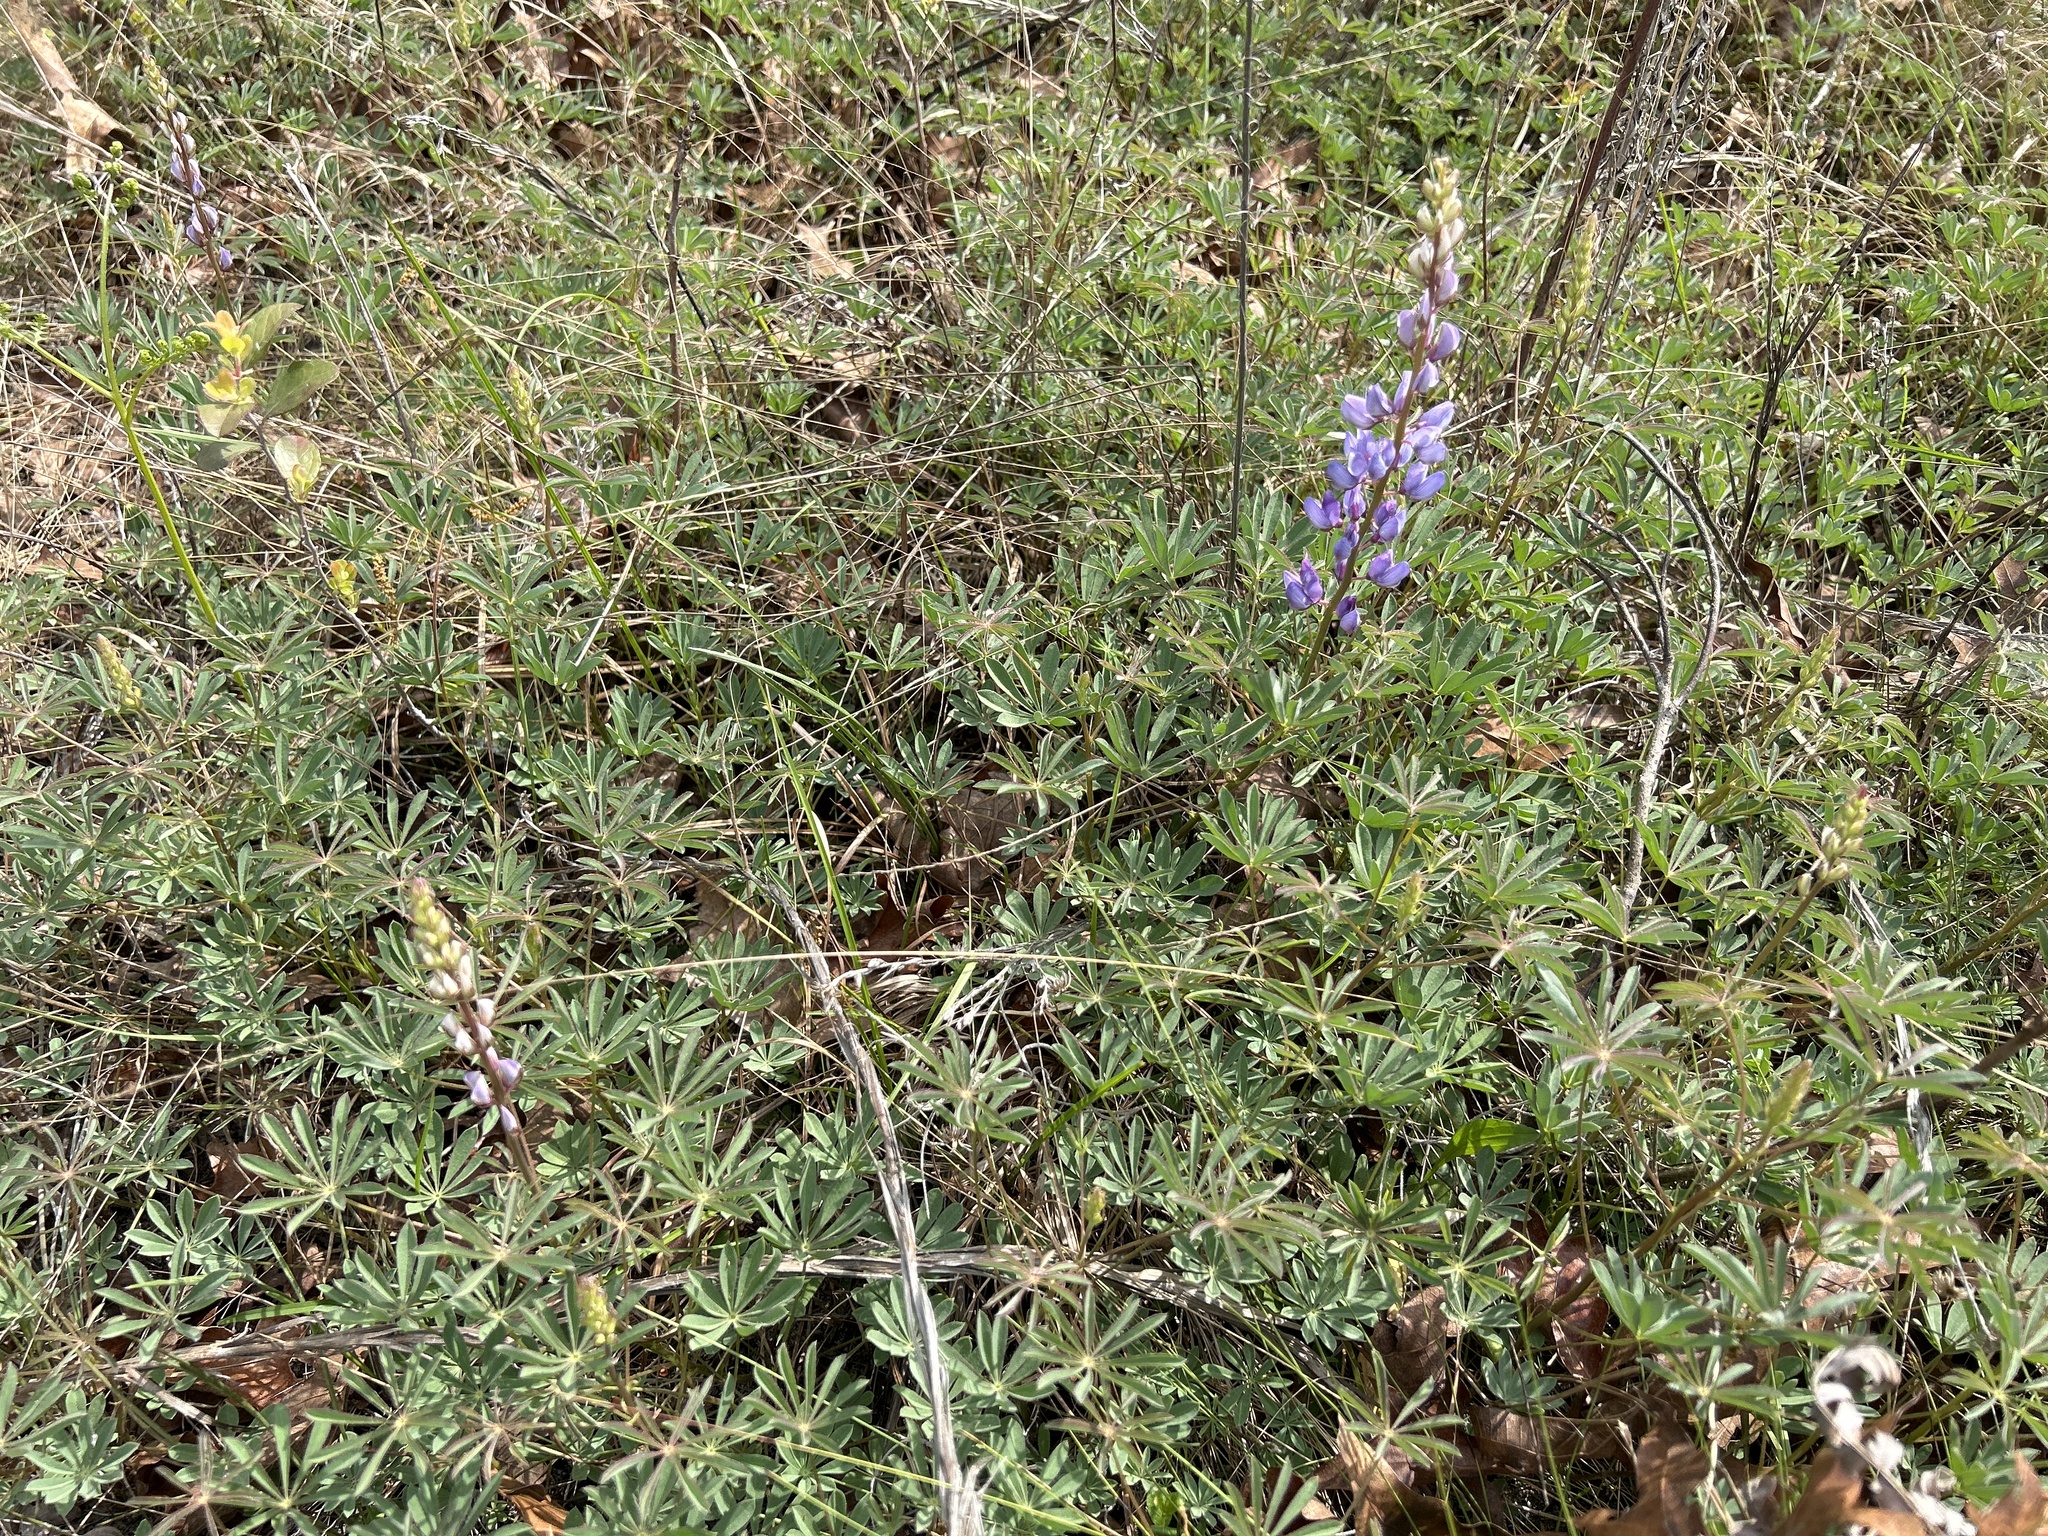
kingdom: Plantae
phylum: Tracheophyta
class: Magnoliopsida
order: Fabales
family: Fabaceae
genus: Lupinus
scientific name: Lupinus perennis
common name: Sundial lupine
